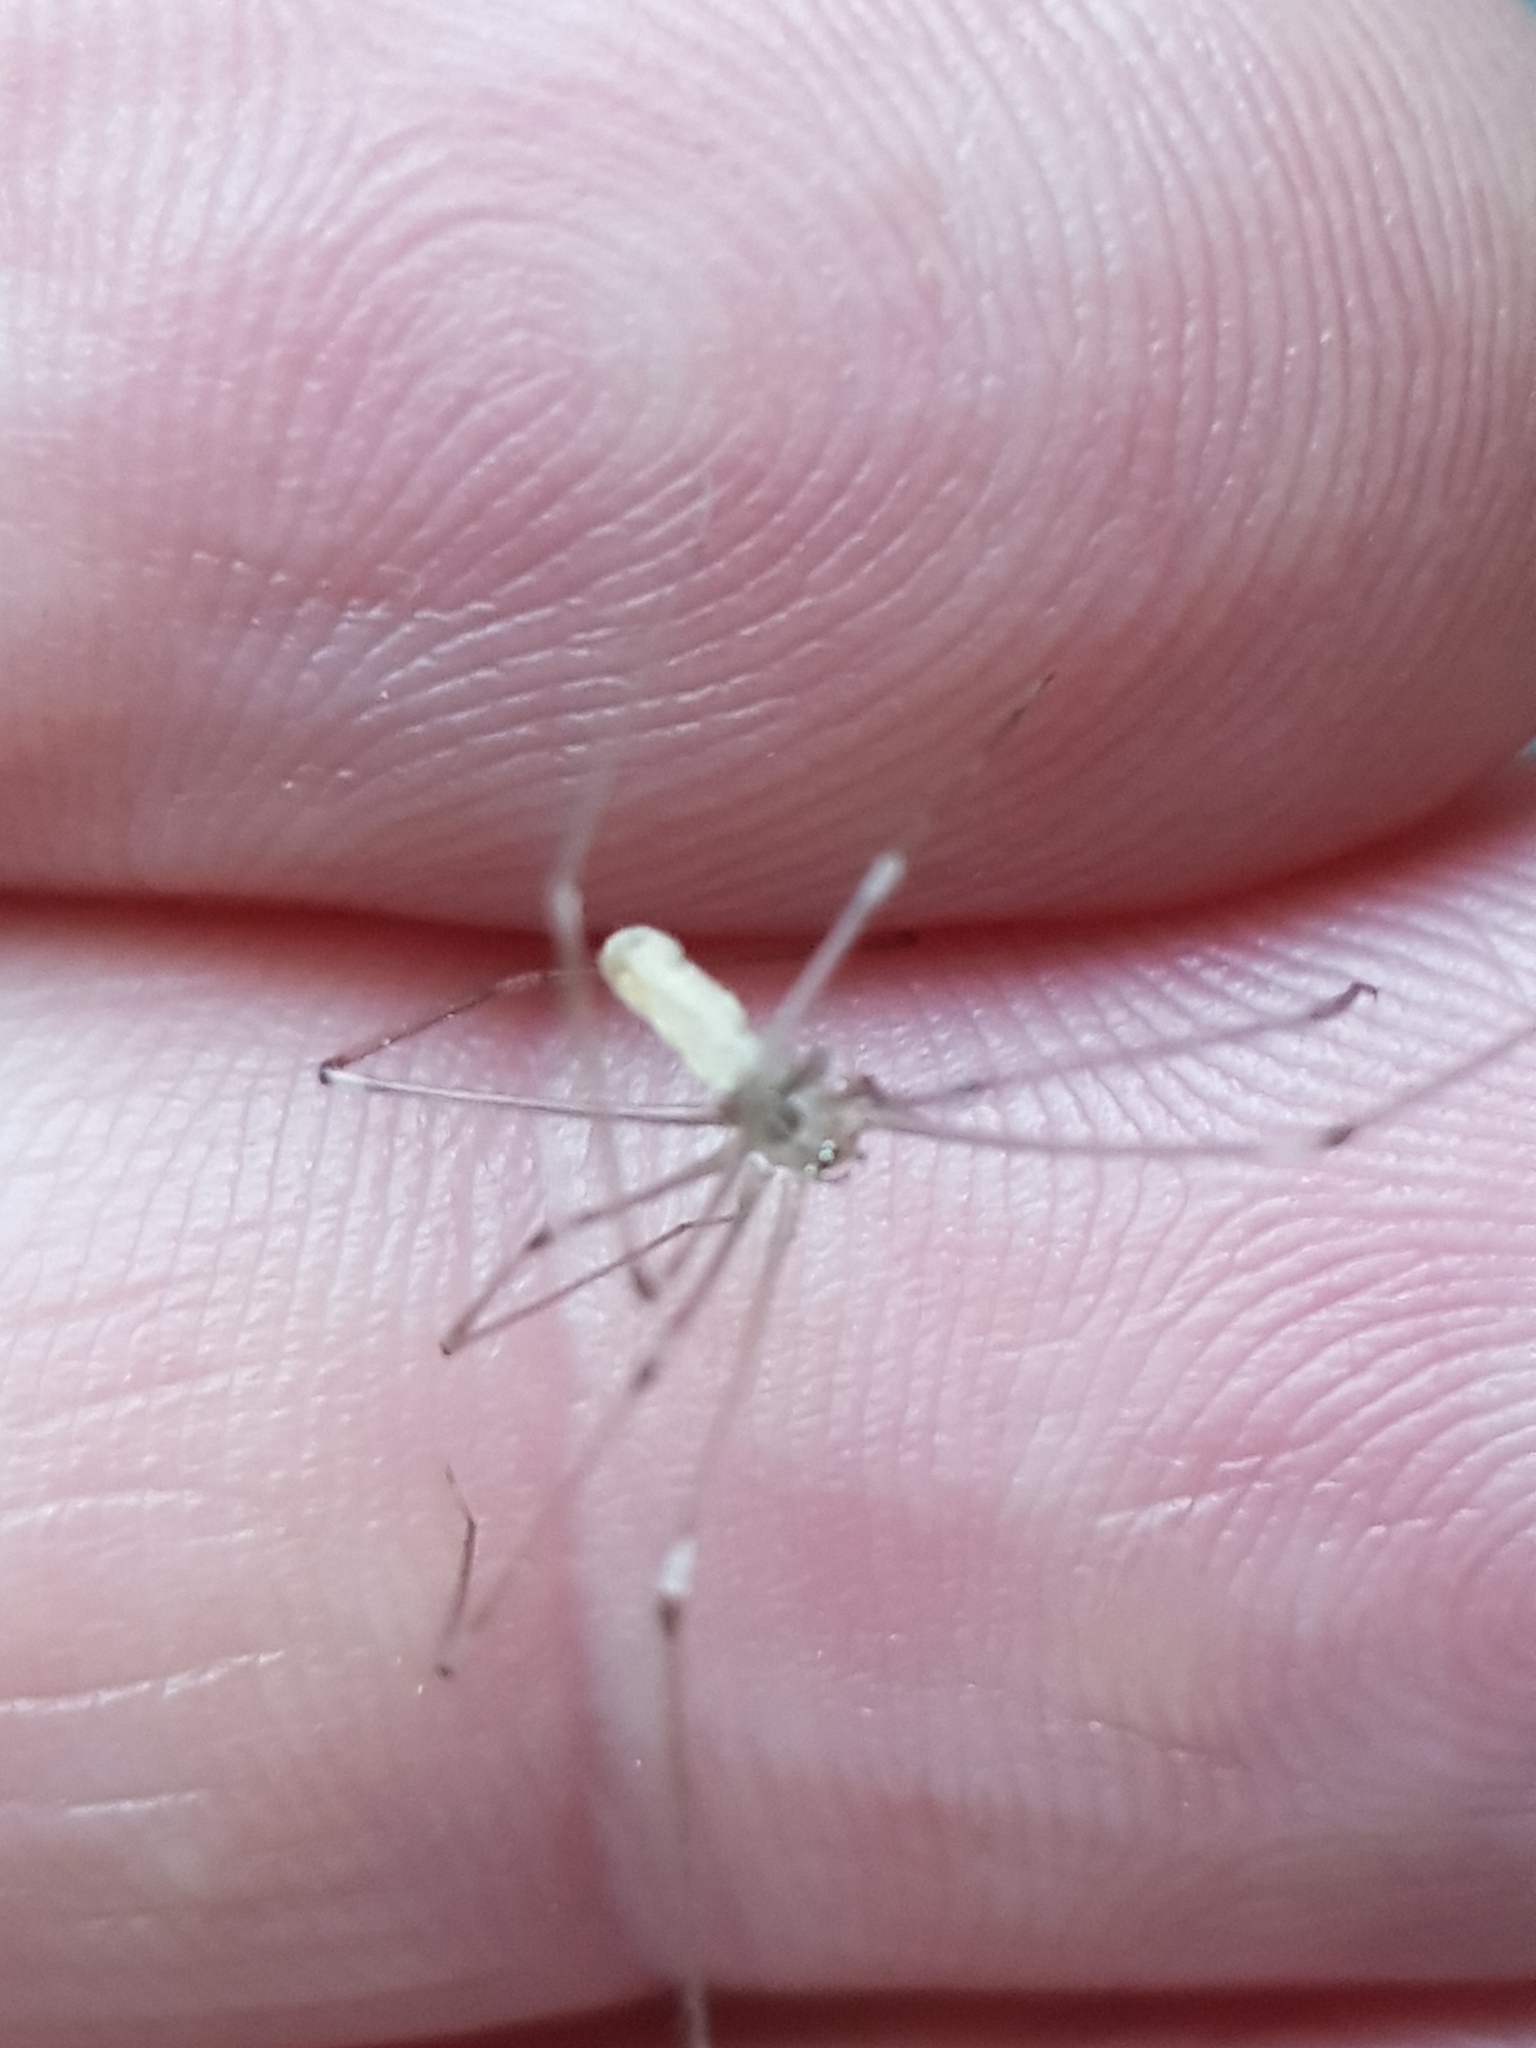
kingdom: Animalia
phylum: Arthropoda
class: Arachnida
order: Araneae
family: Pholcidae
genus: Pholcus
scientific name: Pholcus phalangioides
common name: Longbodied cellar spider
